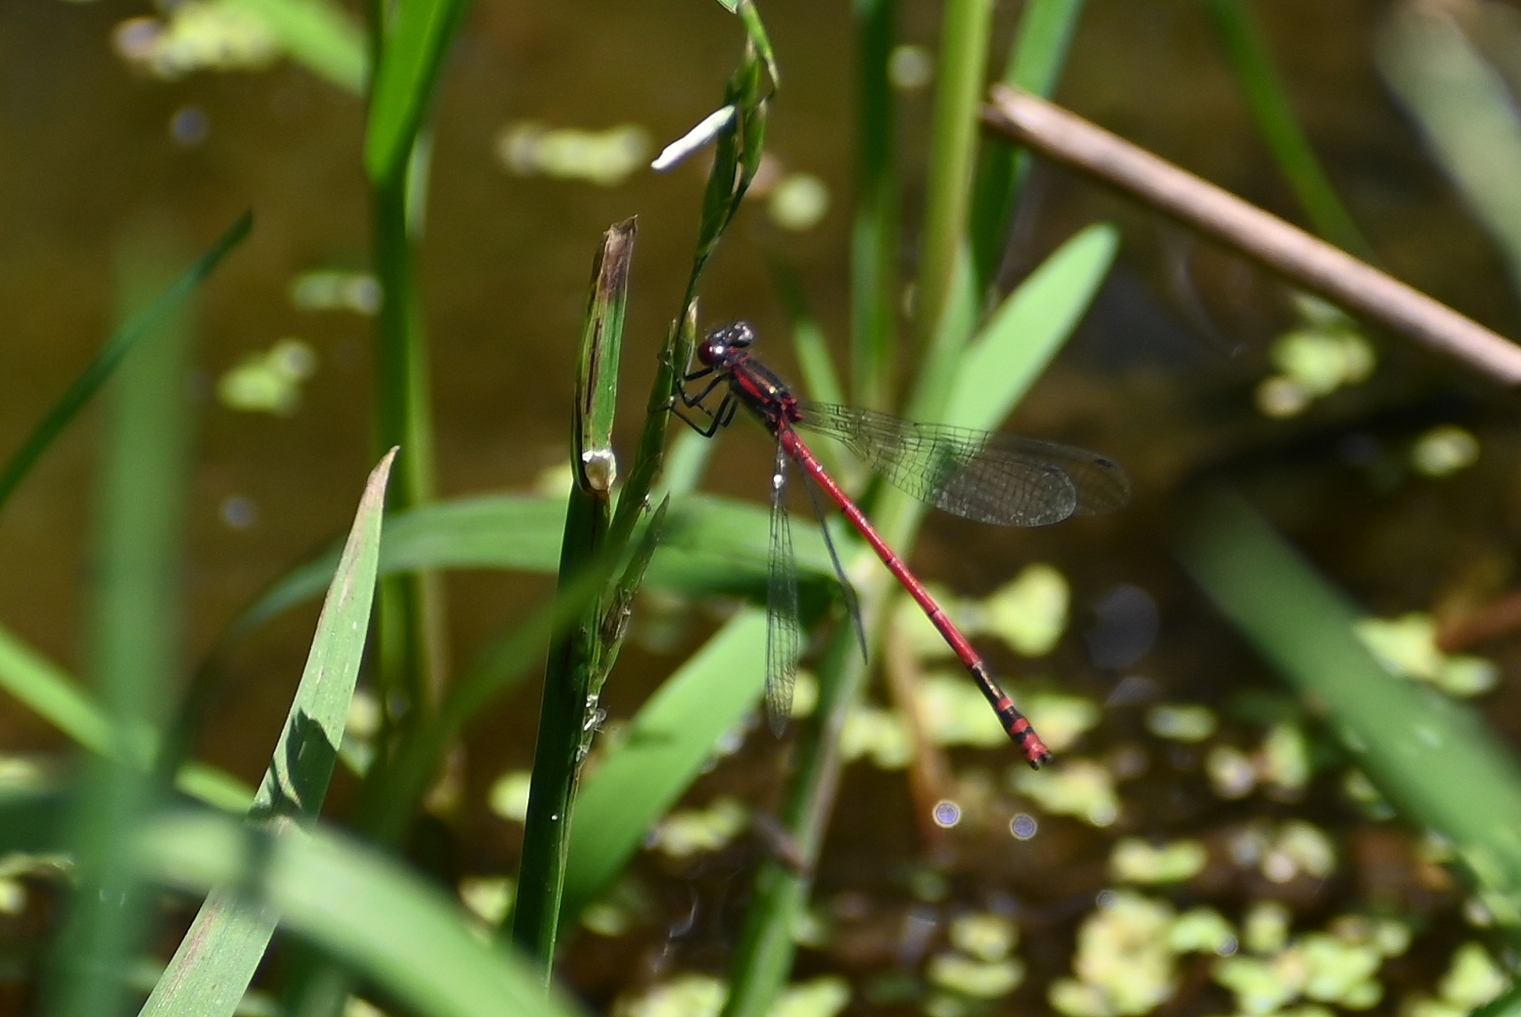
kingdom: Animalia
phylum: Arthropoda
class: Insecta
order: Odonata
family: Coenagrionidae
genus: Pyrrhosoma
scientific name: Pyrrhosoma nymphula
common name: Large red damsel
